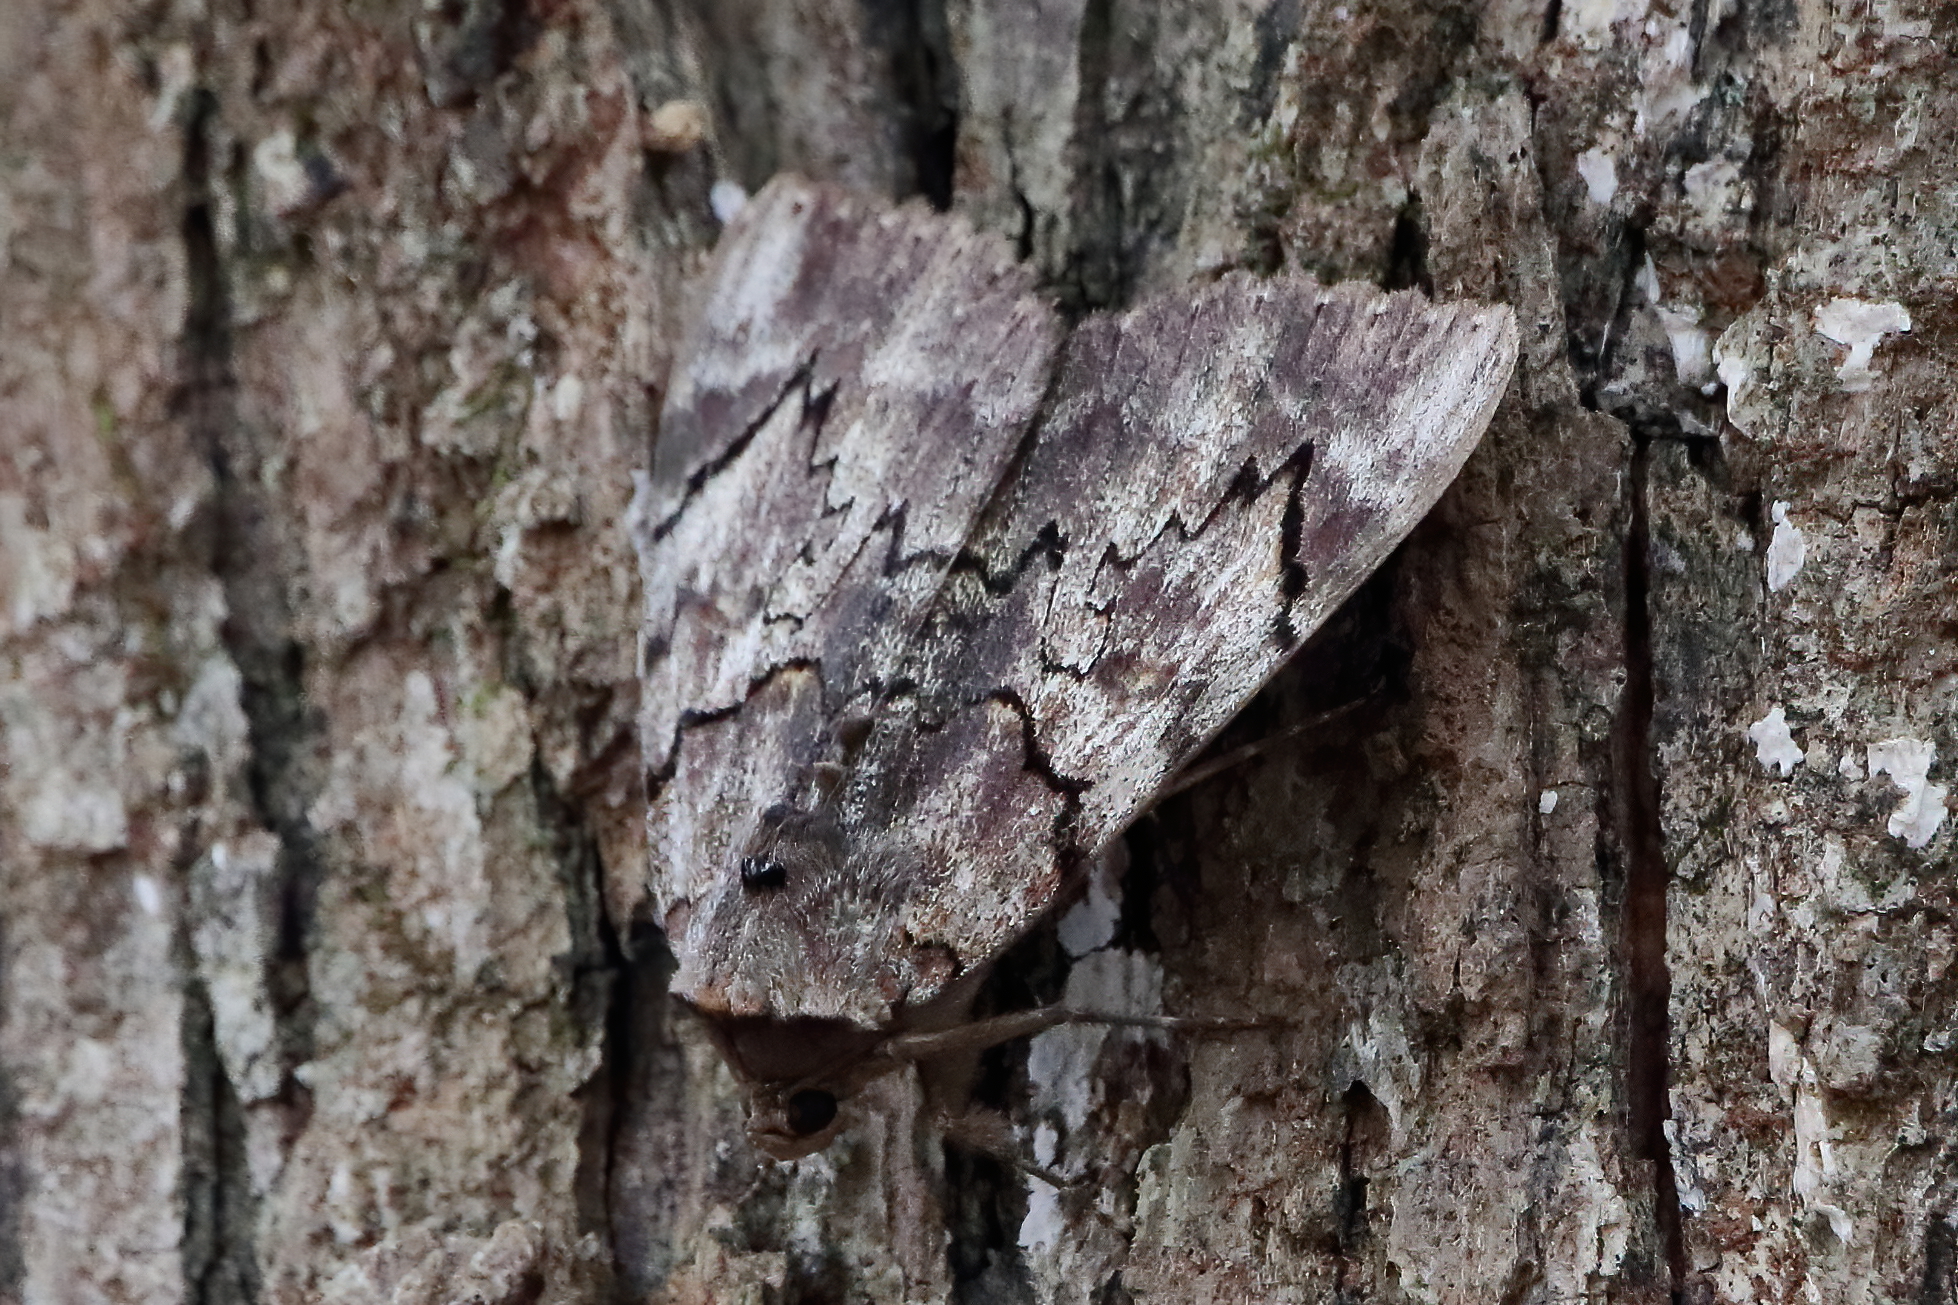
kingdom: Animalia
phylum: Arthropoda
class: Insecta
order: Lepidoptera
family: Erebidae
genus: Catocala
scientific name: Catocala carissima
